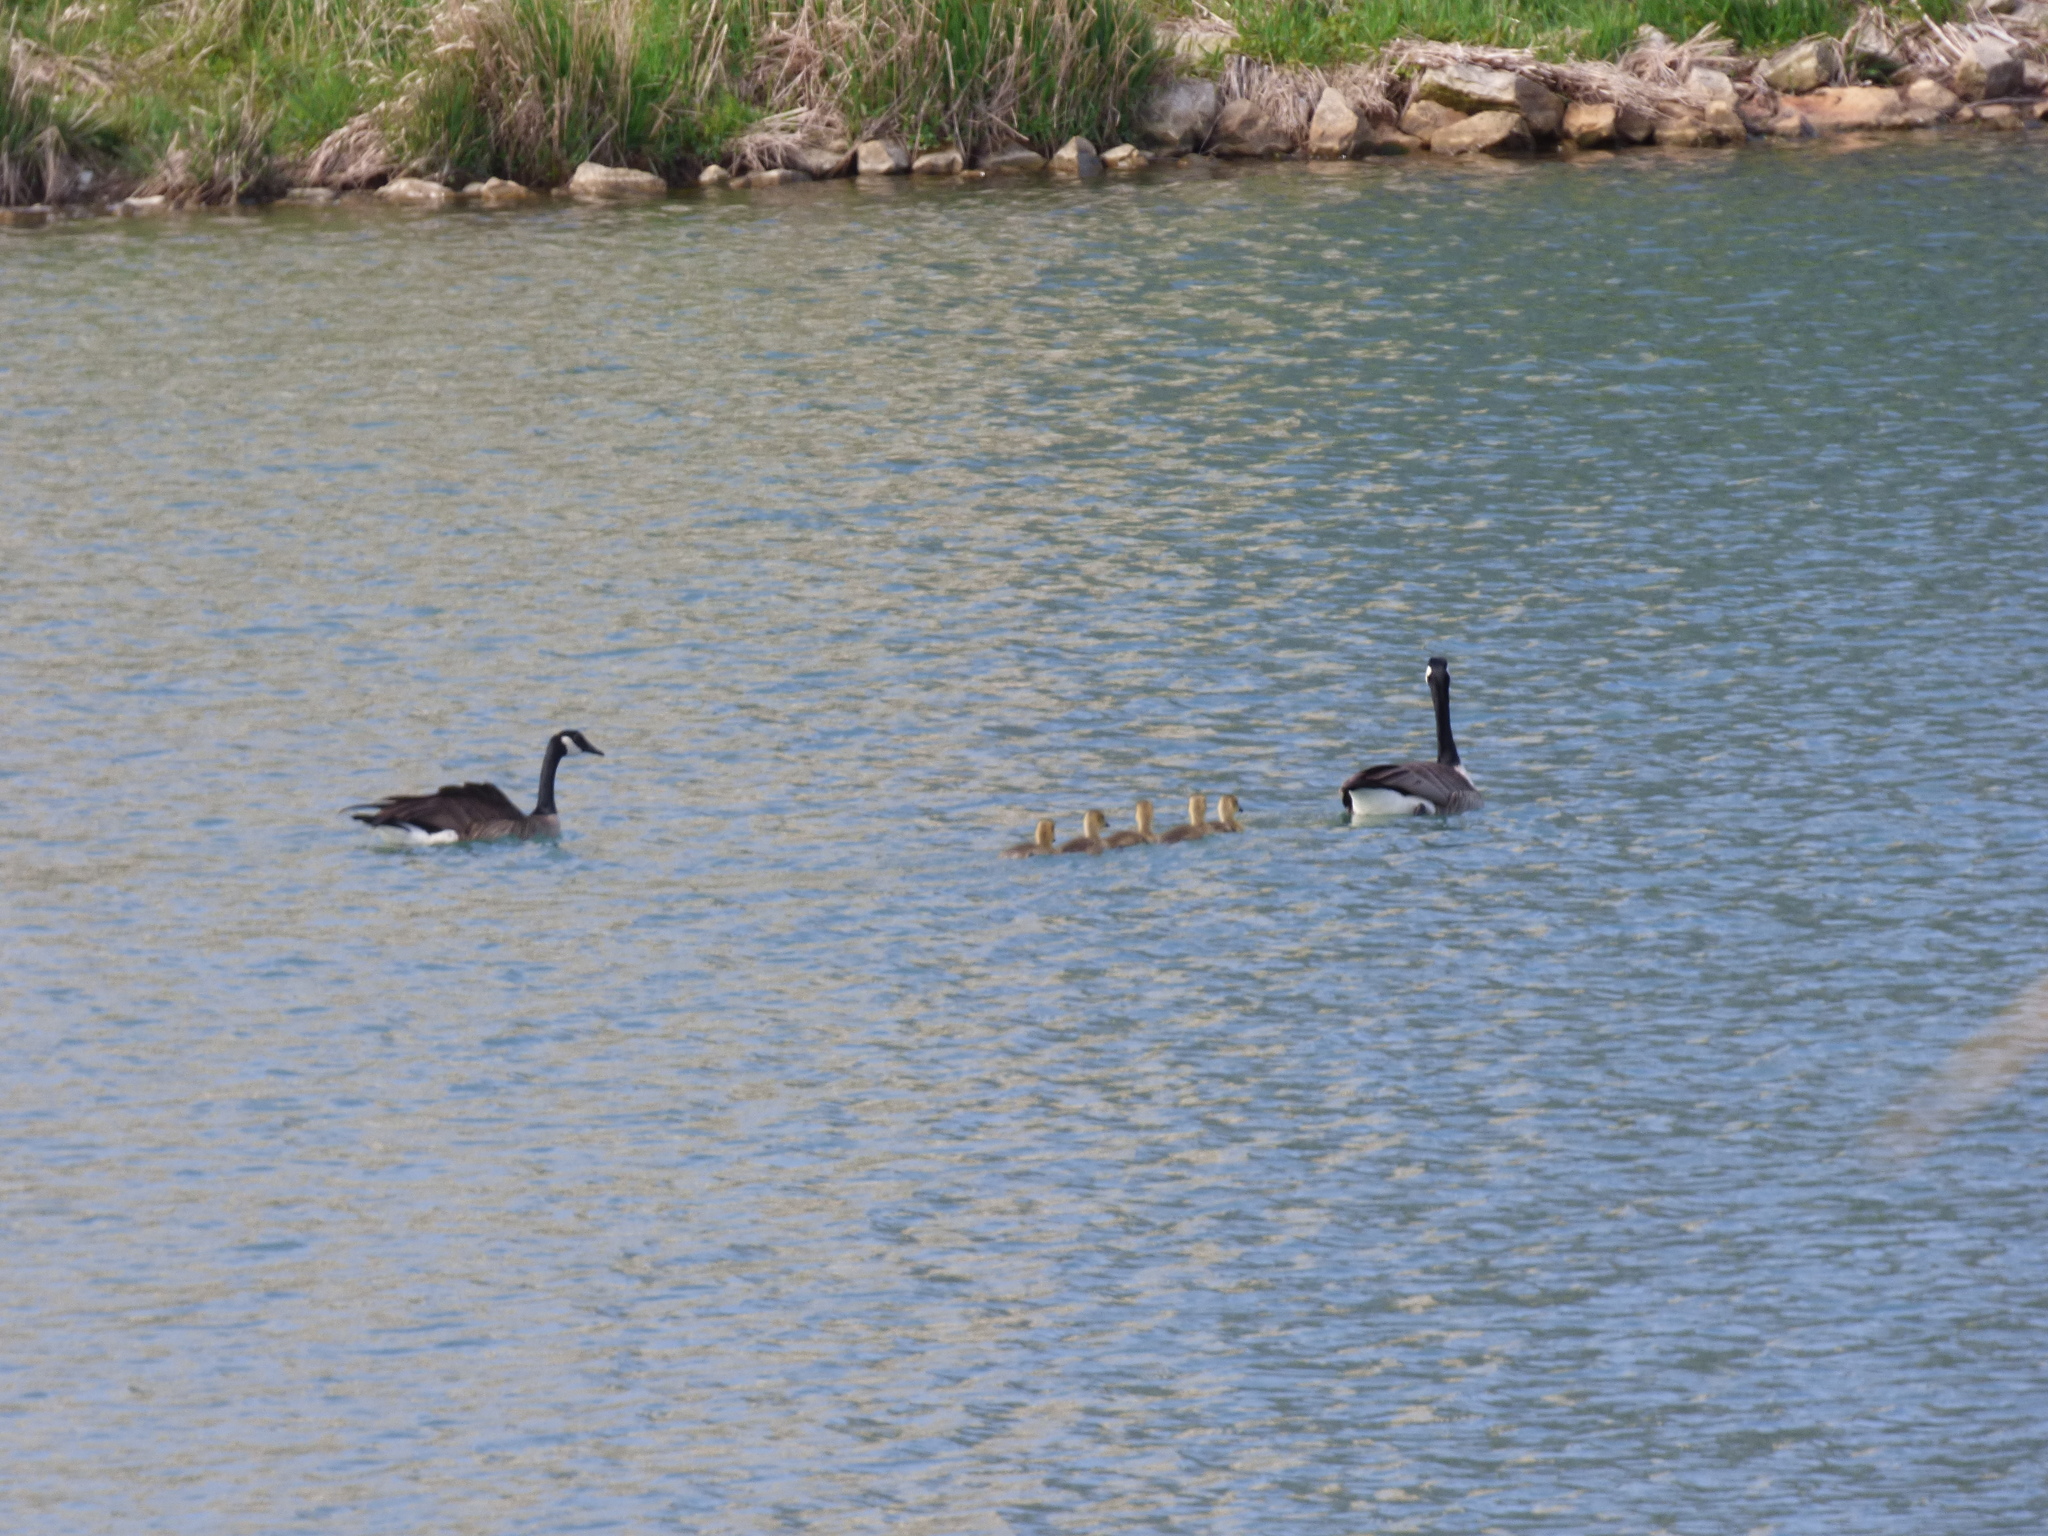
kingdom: Animalia
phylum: Chordata
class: Aves
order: Anseriformes
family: Anatidae
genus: Branta
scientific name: Branta canadensis
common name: Canada goose
